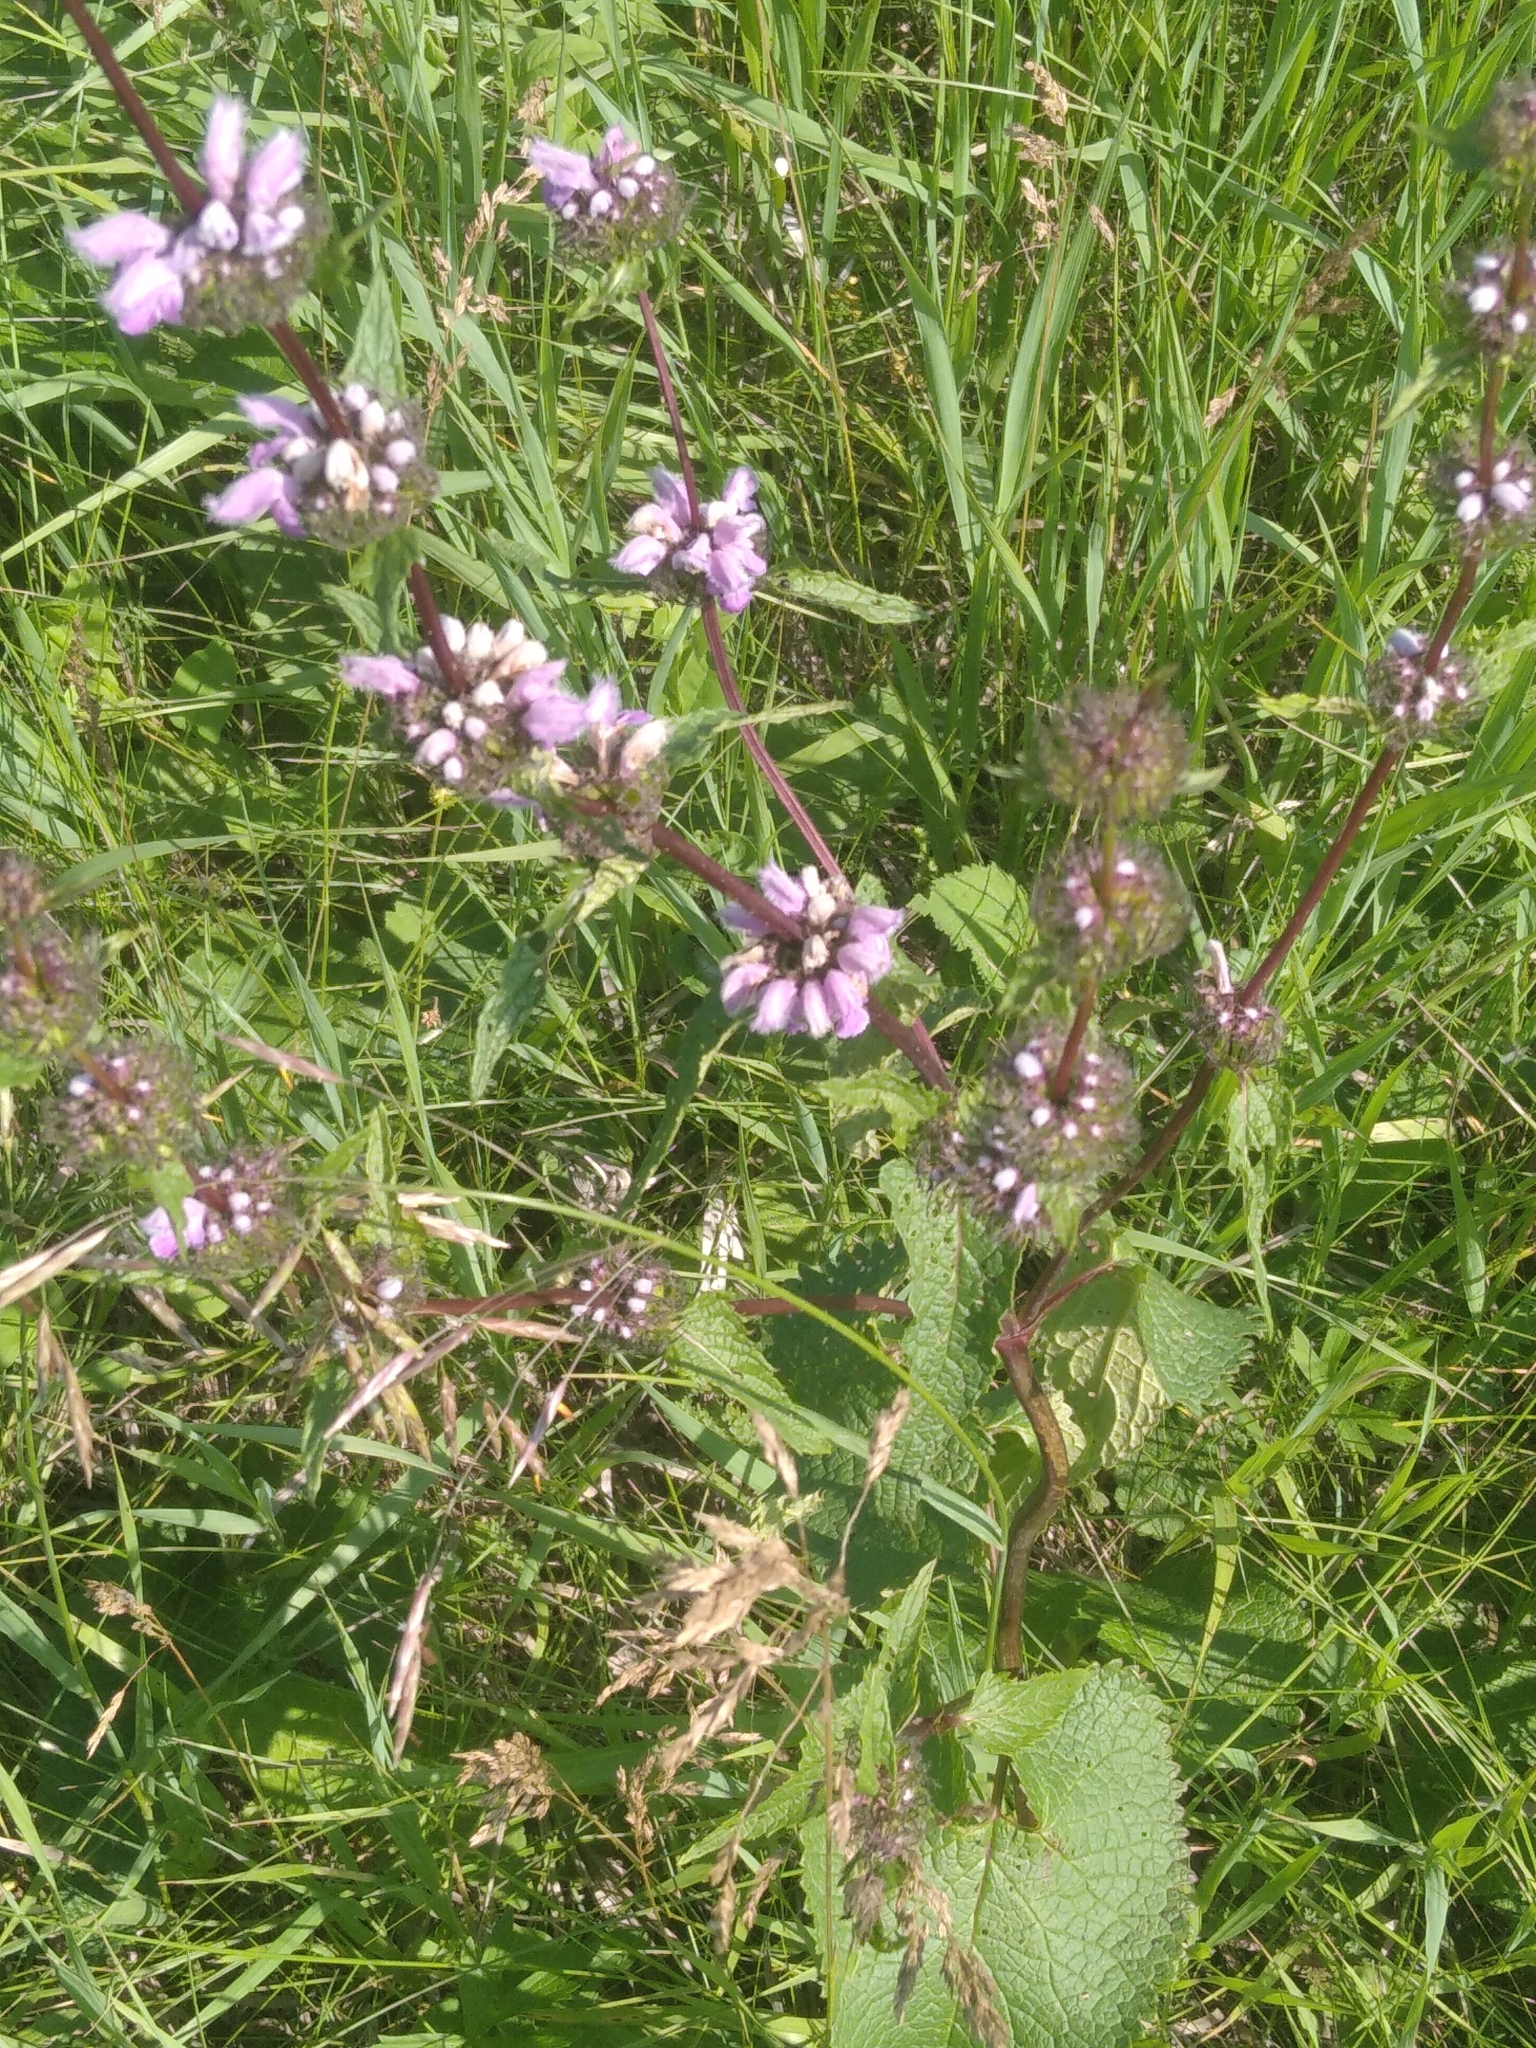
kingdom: Plantae
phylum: Tracheophyta
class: Magnoliopsida
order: Lamiales
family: Lamiaceae
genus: Phlomoides
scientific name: Phlomoides tuberosa
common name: Tuberous jerusalem sage
